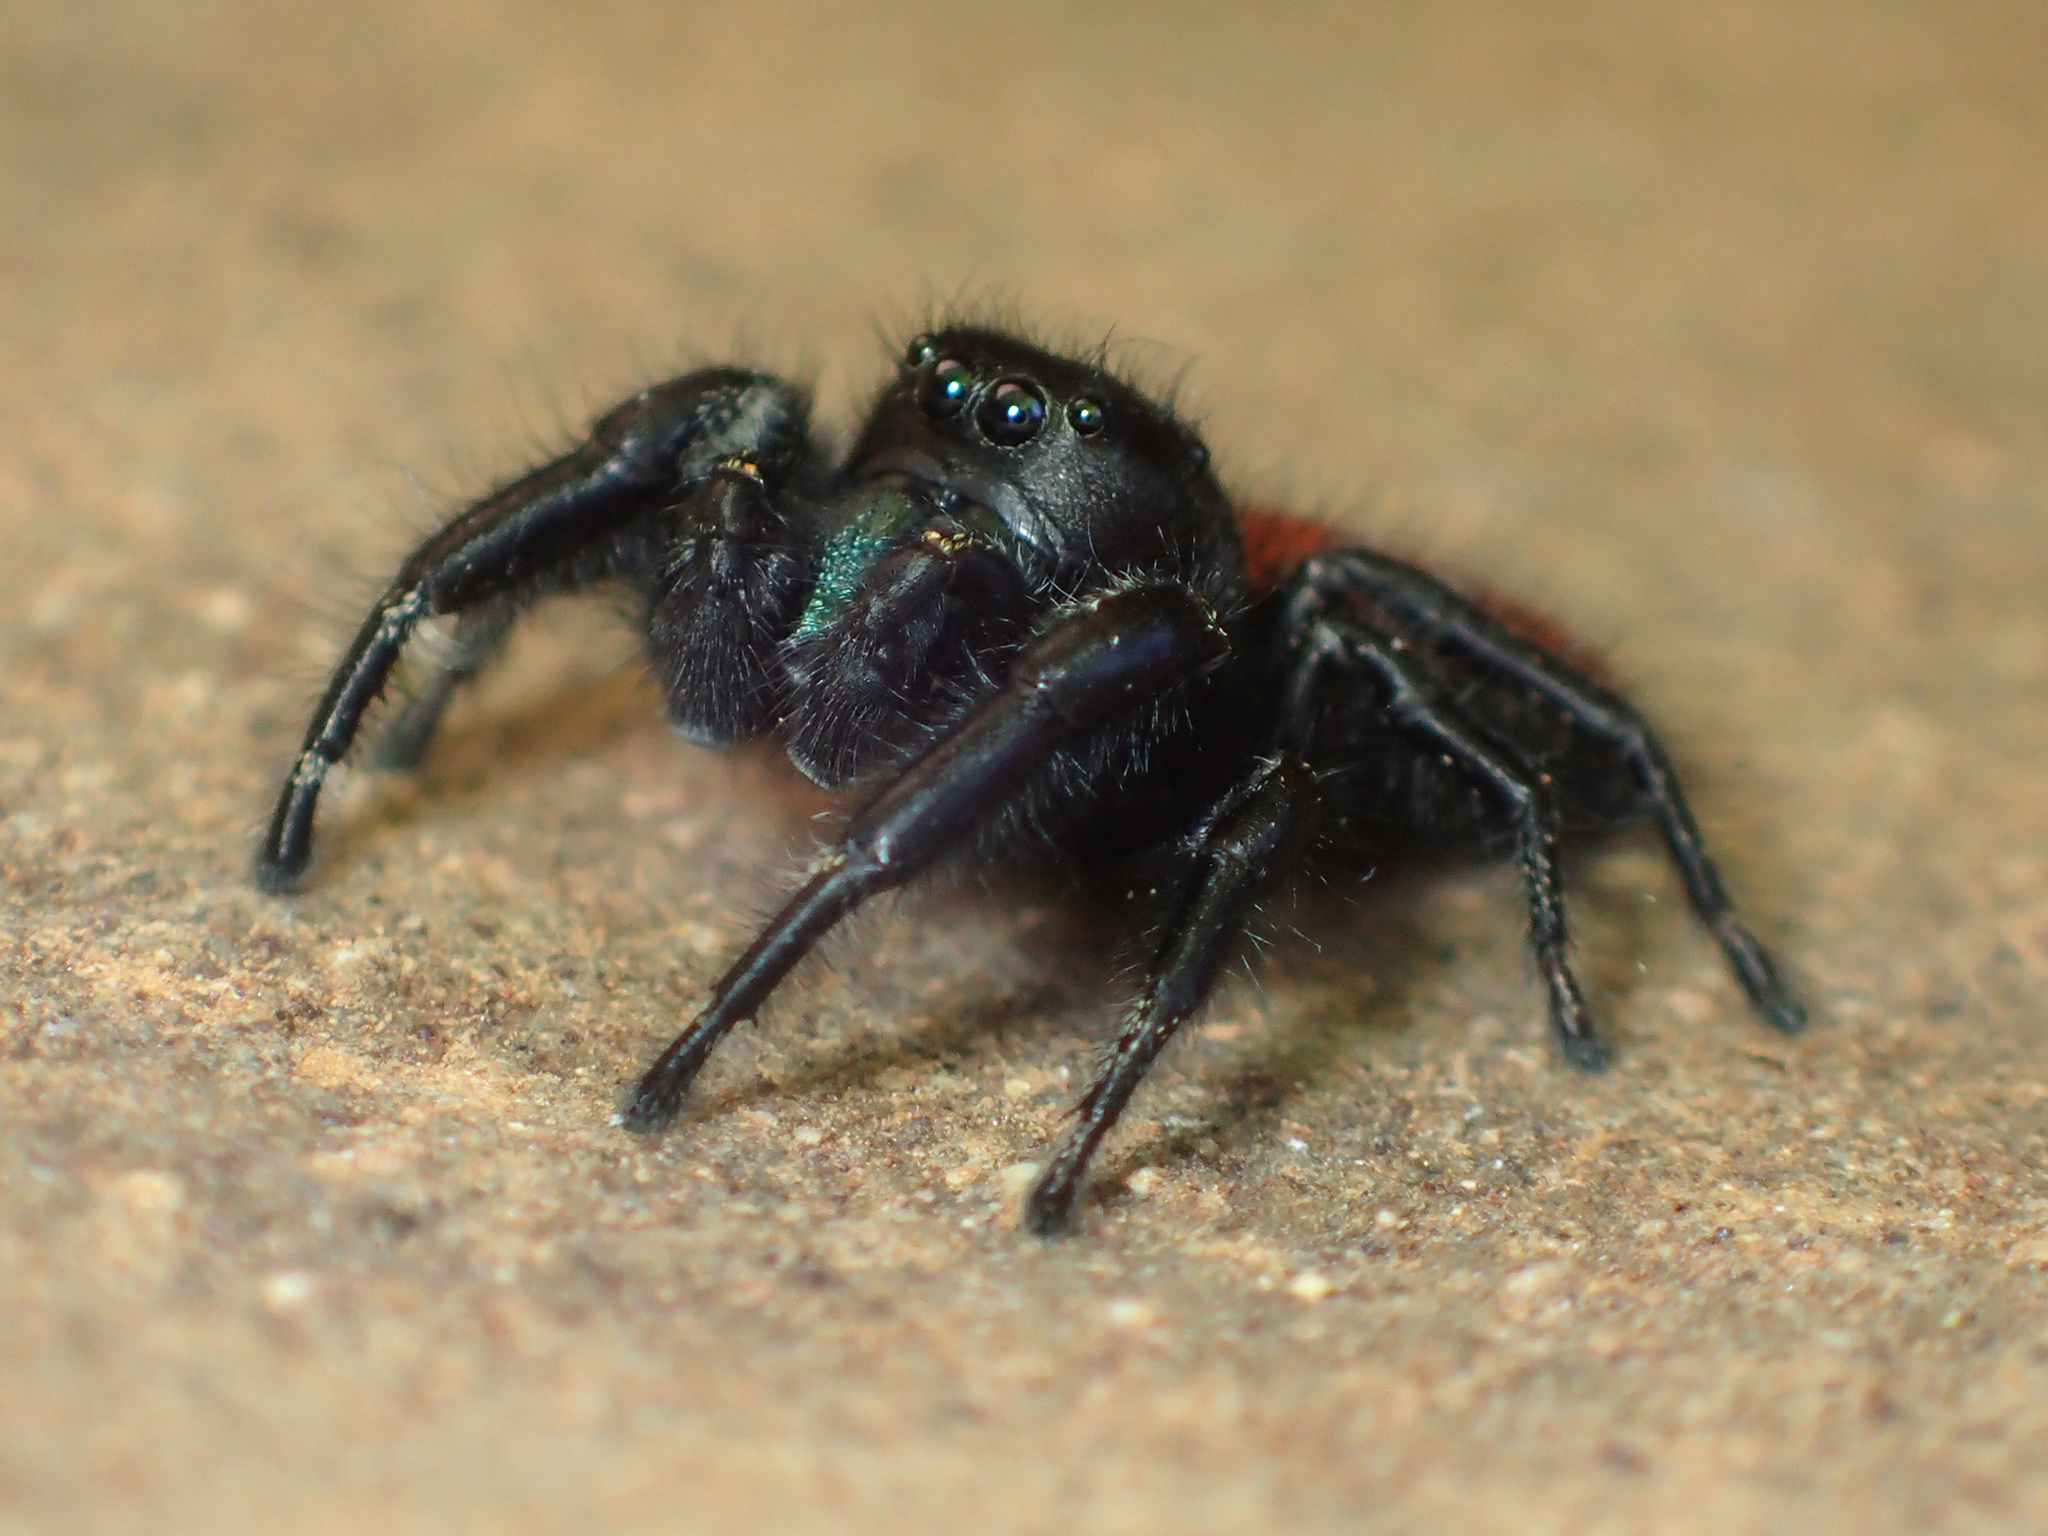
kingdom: Animalia
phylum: Arthropoda
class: Arachnida
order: Araneae
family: Salticidae
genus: Phidippus
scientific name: Phidippus johnsoni
